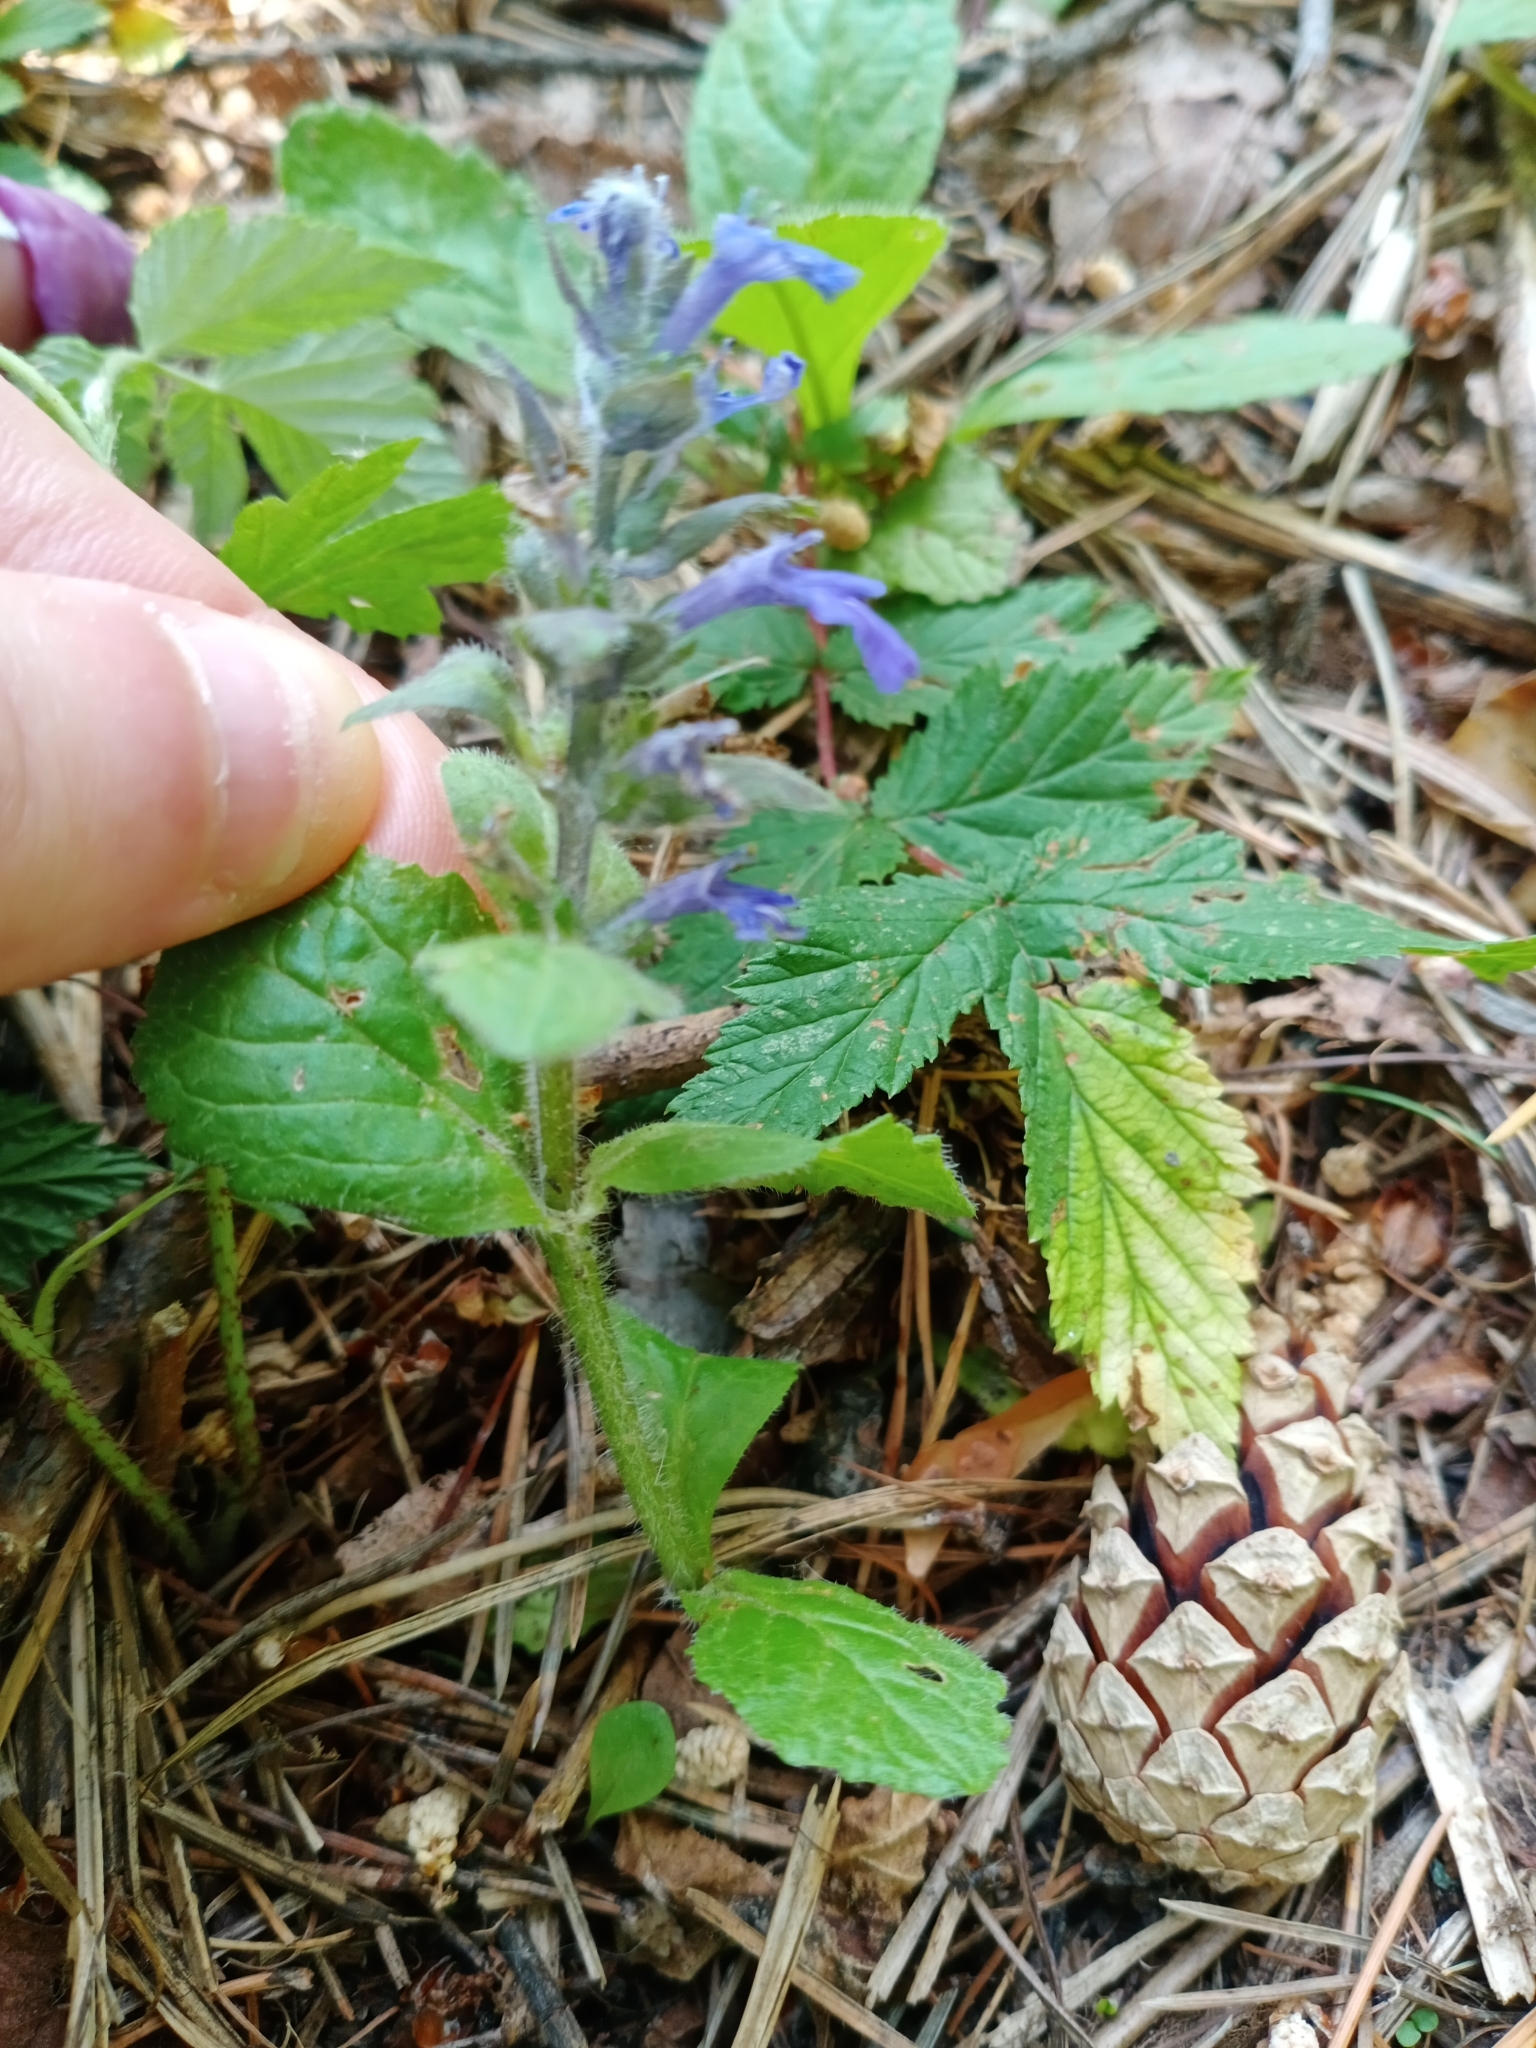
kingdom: Plantae
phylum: Tracheophyta
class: Magnoliopsida
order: Lamiales
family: Lamiaceae
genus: Ajuga
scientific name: Ajuga reptans
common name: Bugle
